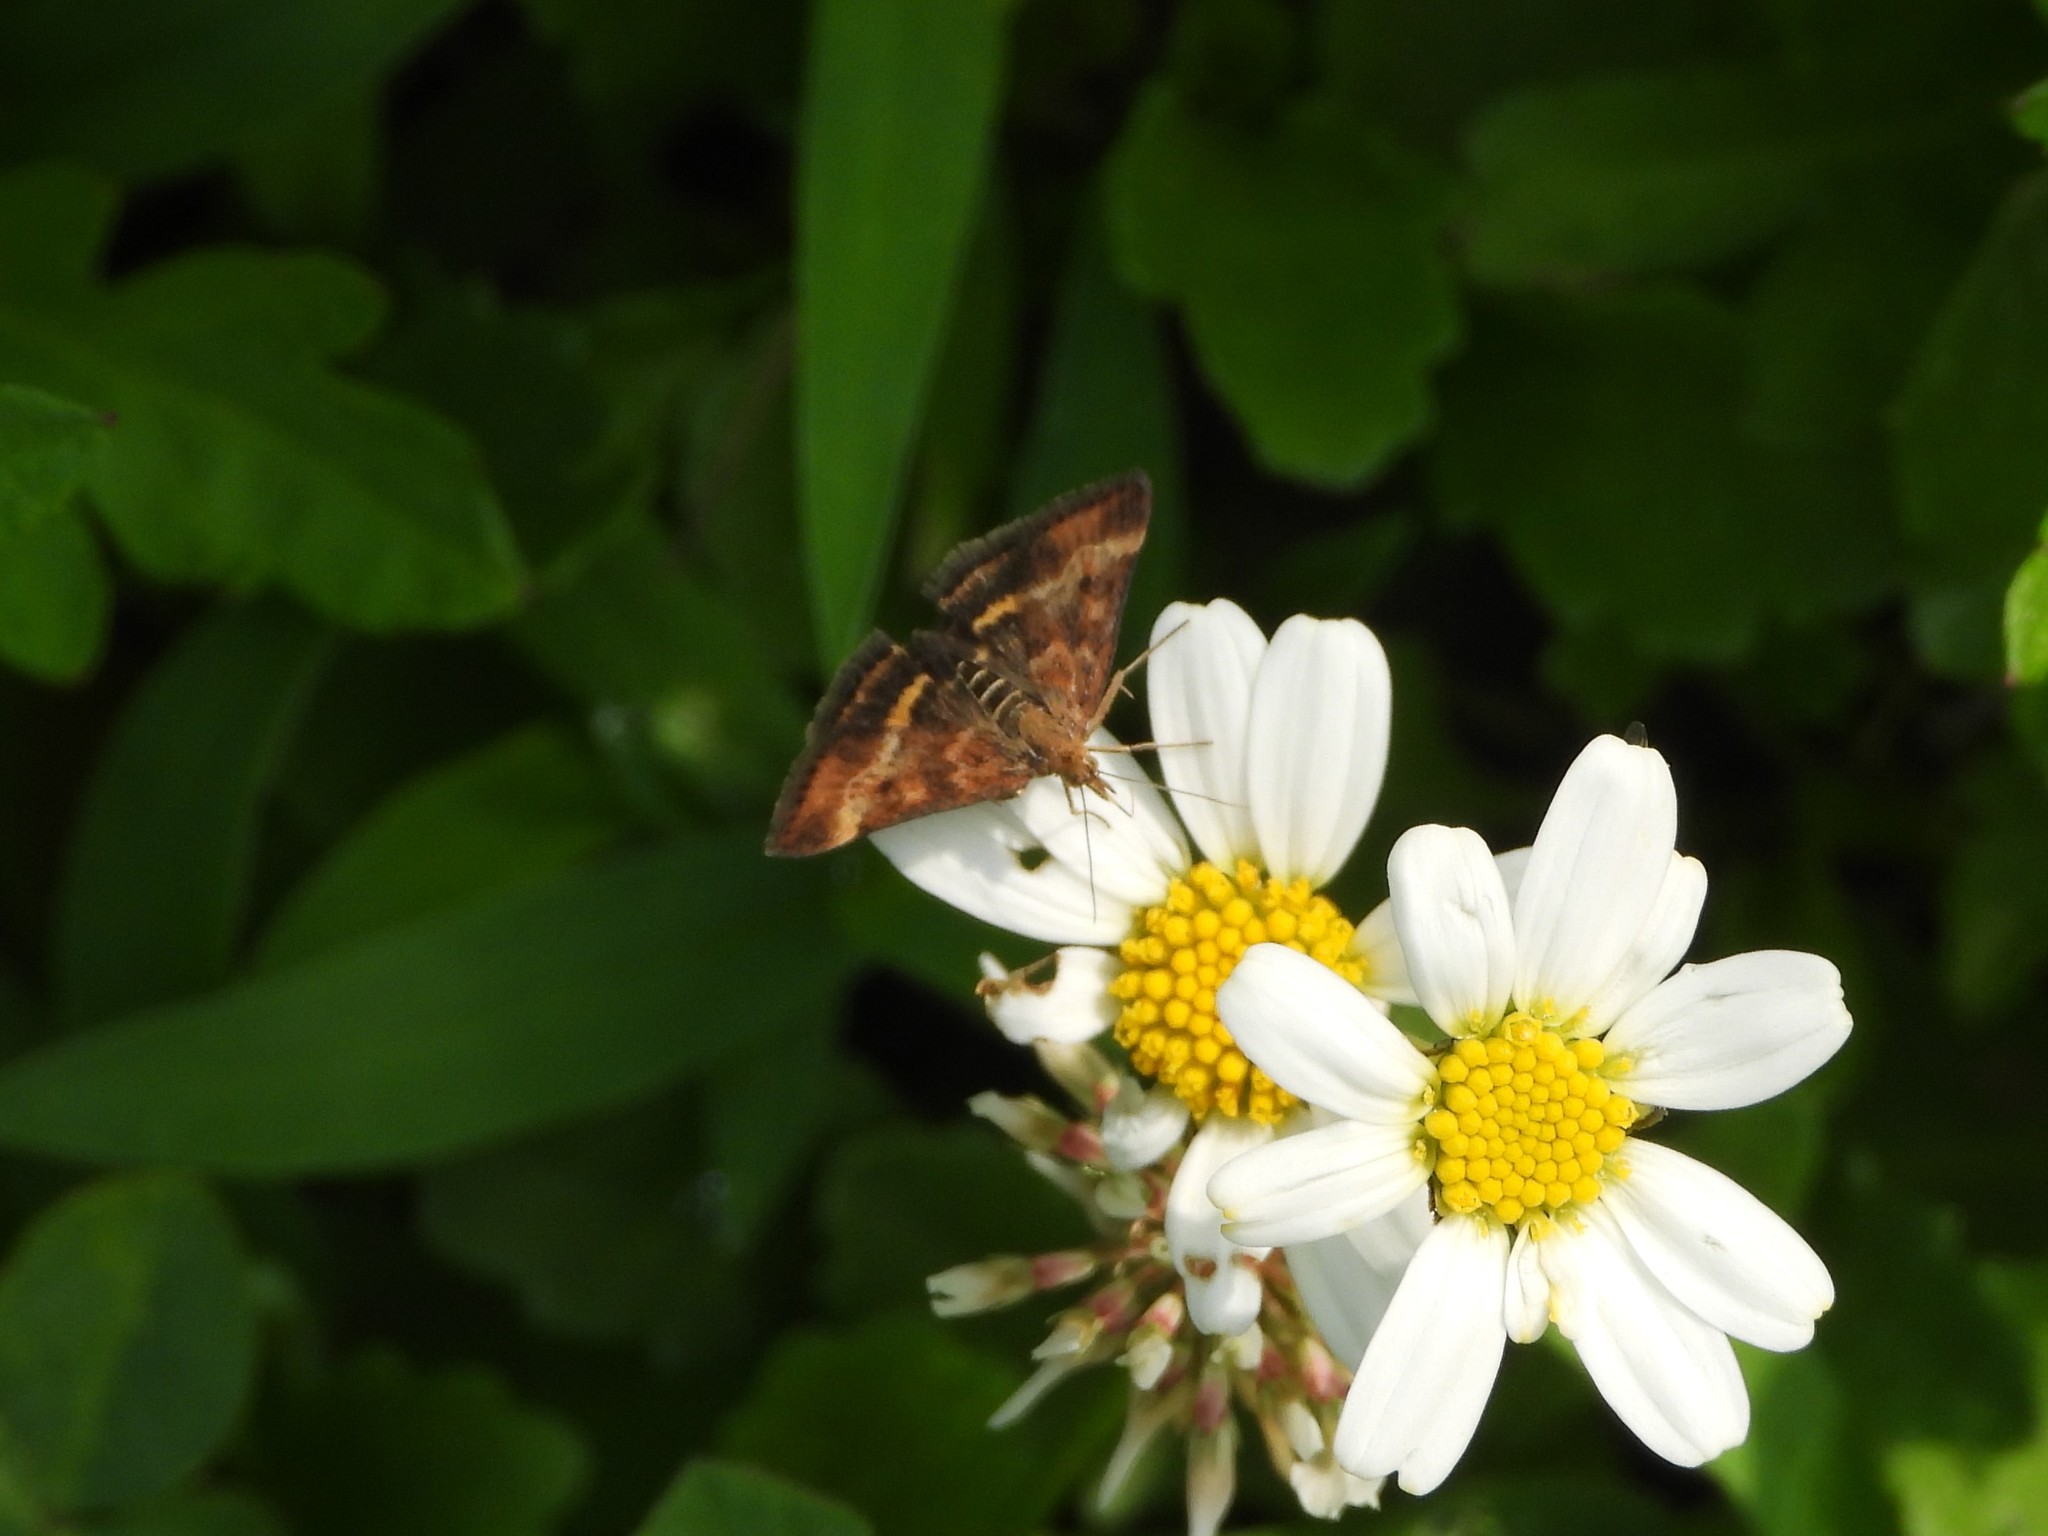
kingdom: Animalia
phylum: Arthropoda
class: Insecta
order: Lepidoptera
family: Crambidae
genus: Pyrausta
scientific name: Pyrausta despicata
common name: Straw-barred pearl
